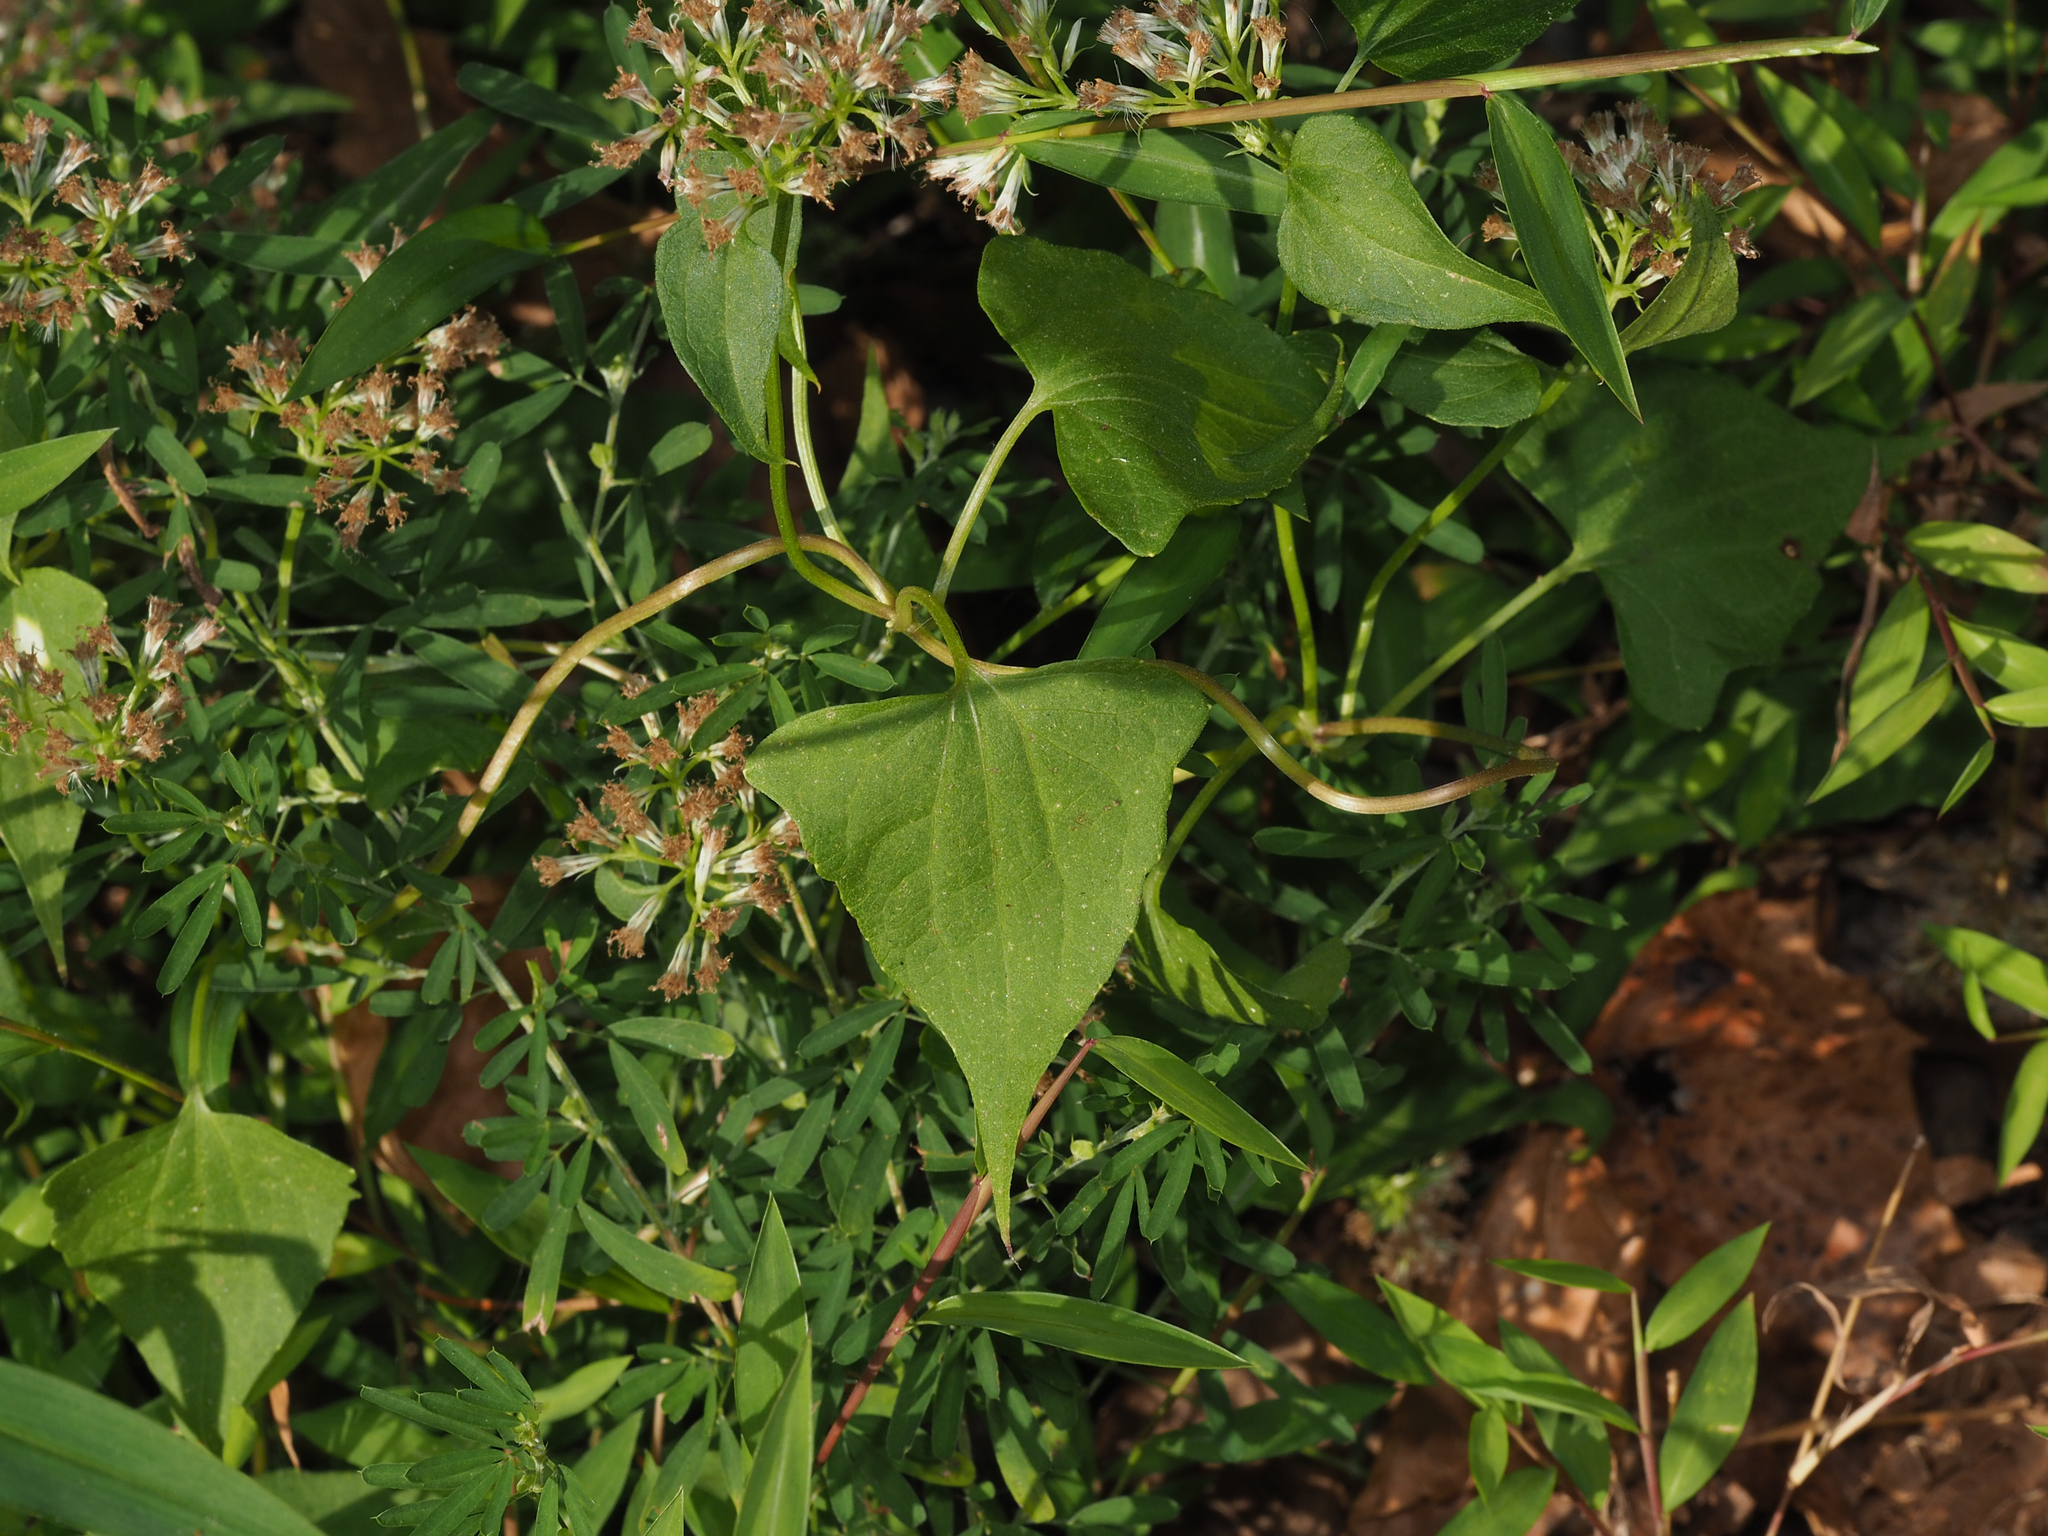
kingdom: Plantae
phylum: Tracheophyta
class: Magnoliopsida
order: Asterales
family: Asteraceae
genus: Mikania
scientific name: Mikania scandens
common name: Climbing hempvine
